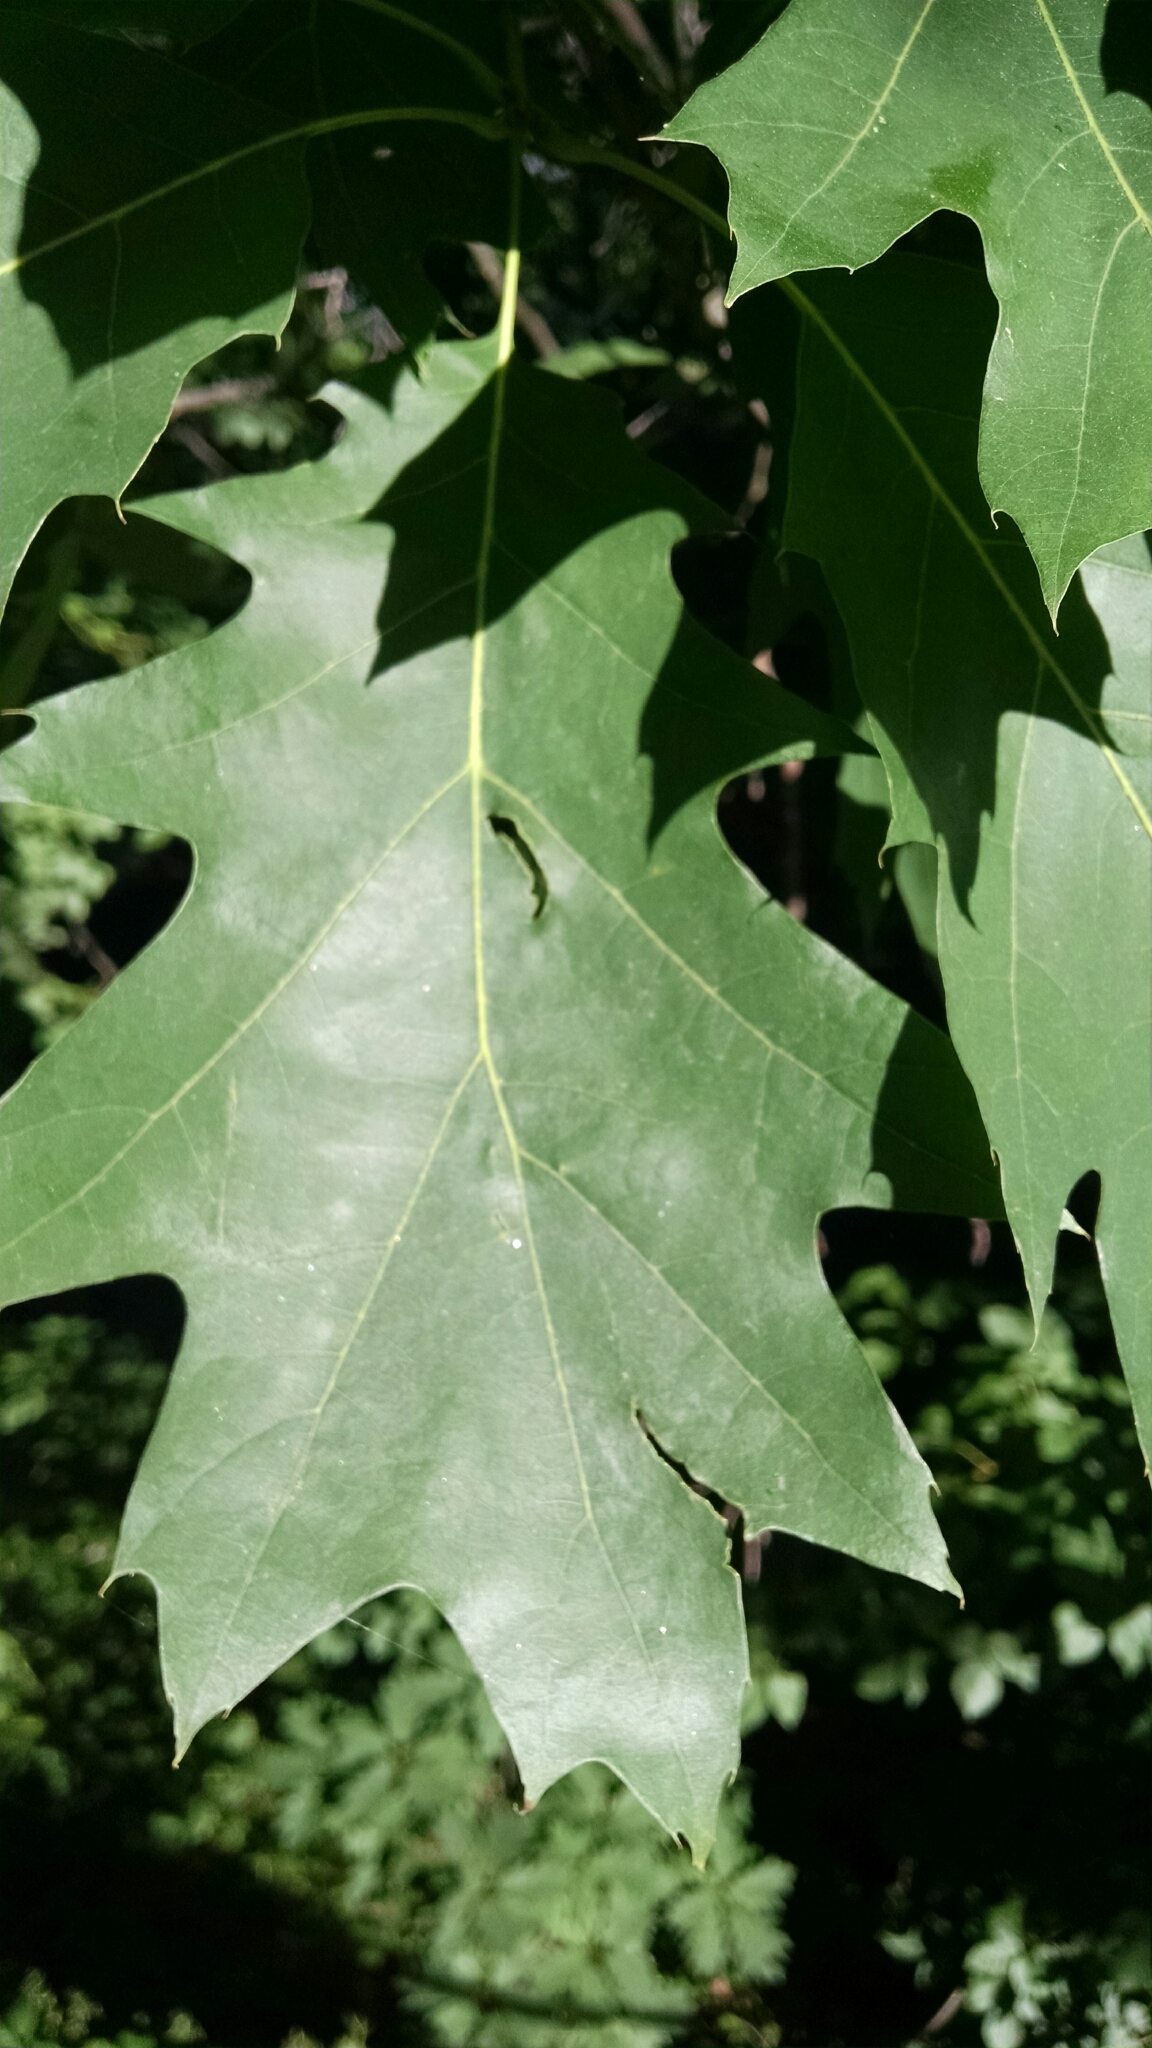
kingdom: Plantae
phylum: Tracheophyta
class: Magnoliopsida
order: Fagales
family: Fagaceae
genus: Quercus
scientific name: Quercus rubra
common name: Red oak
